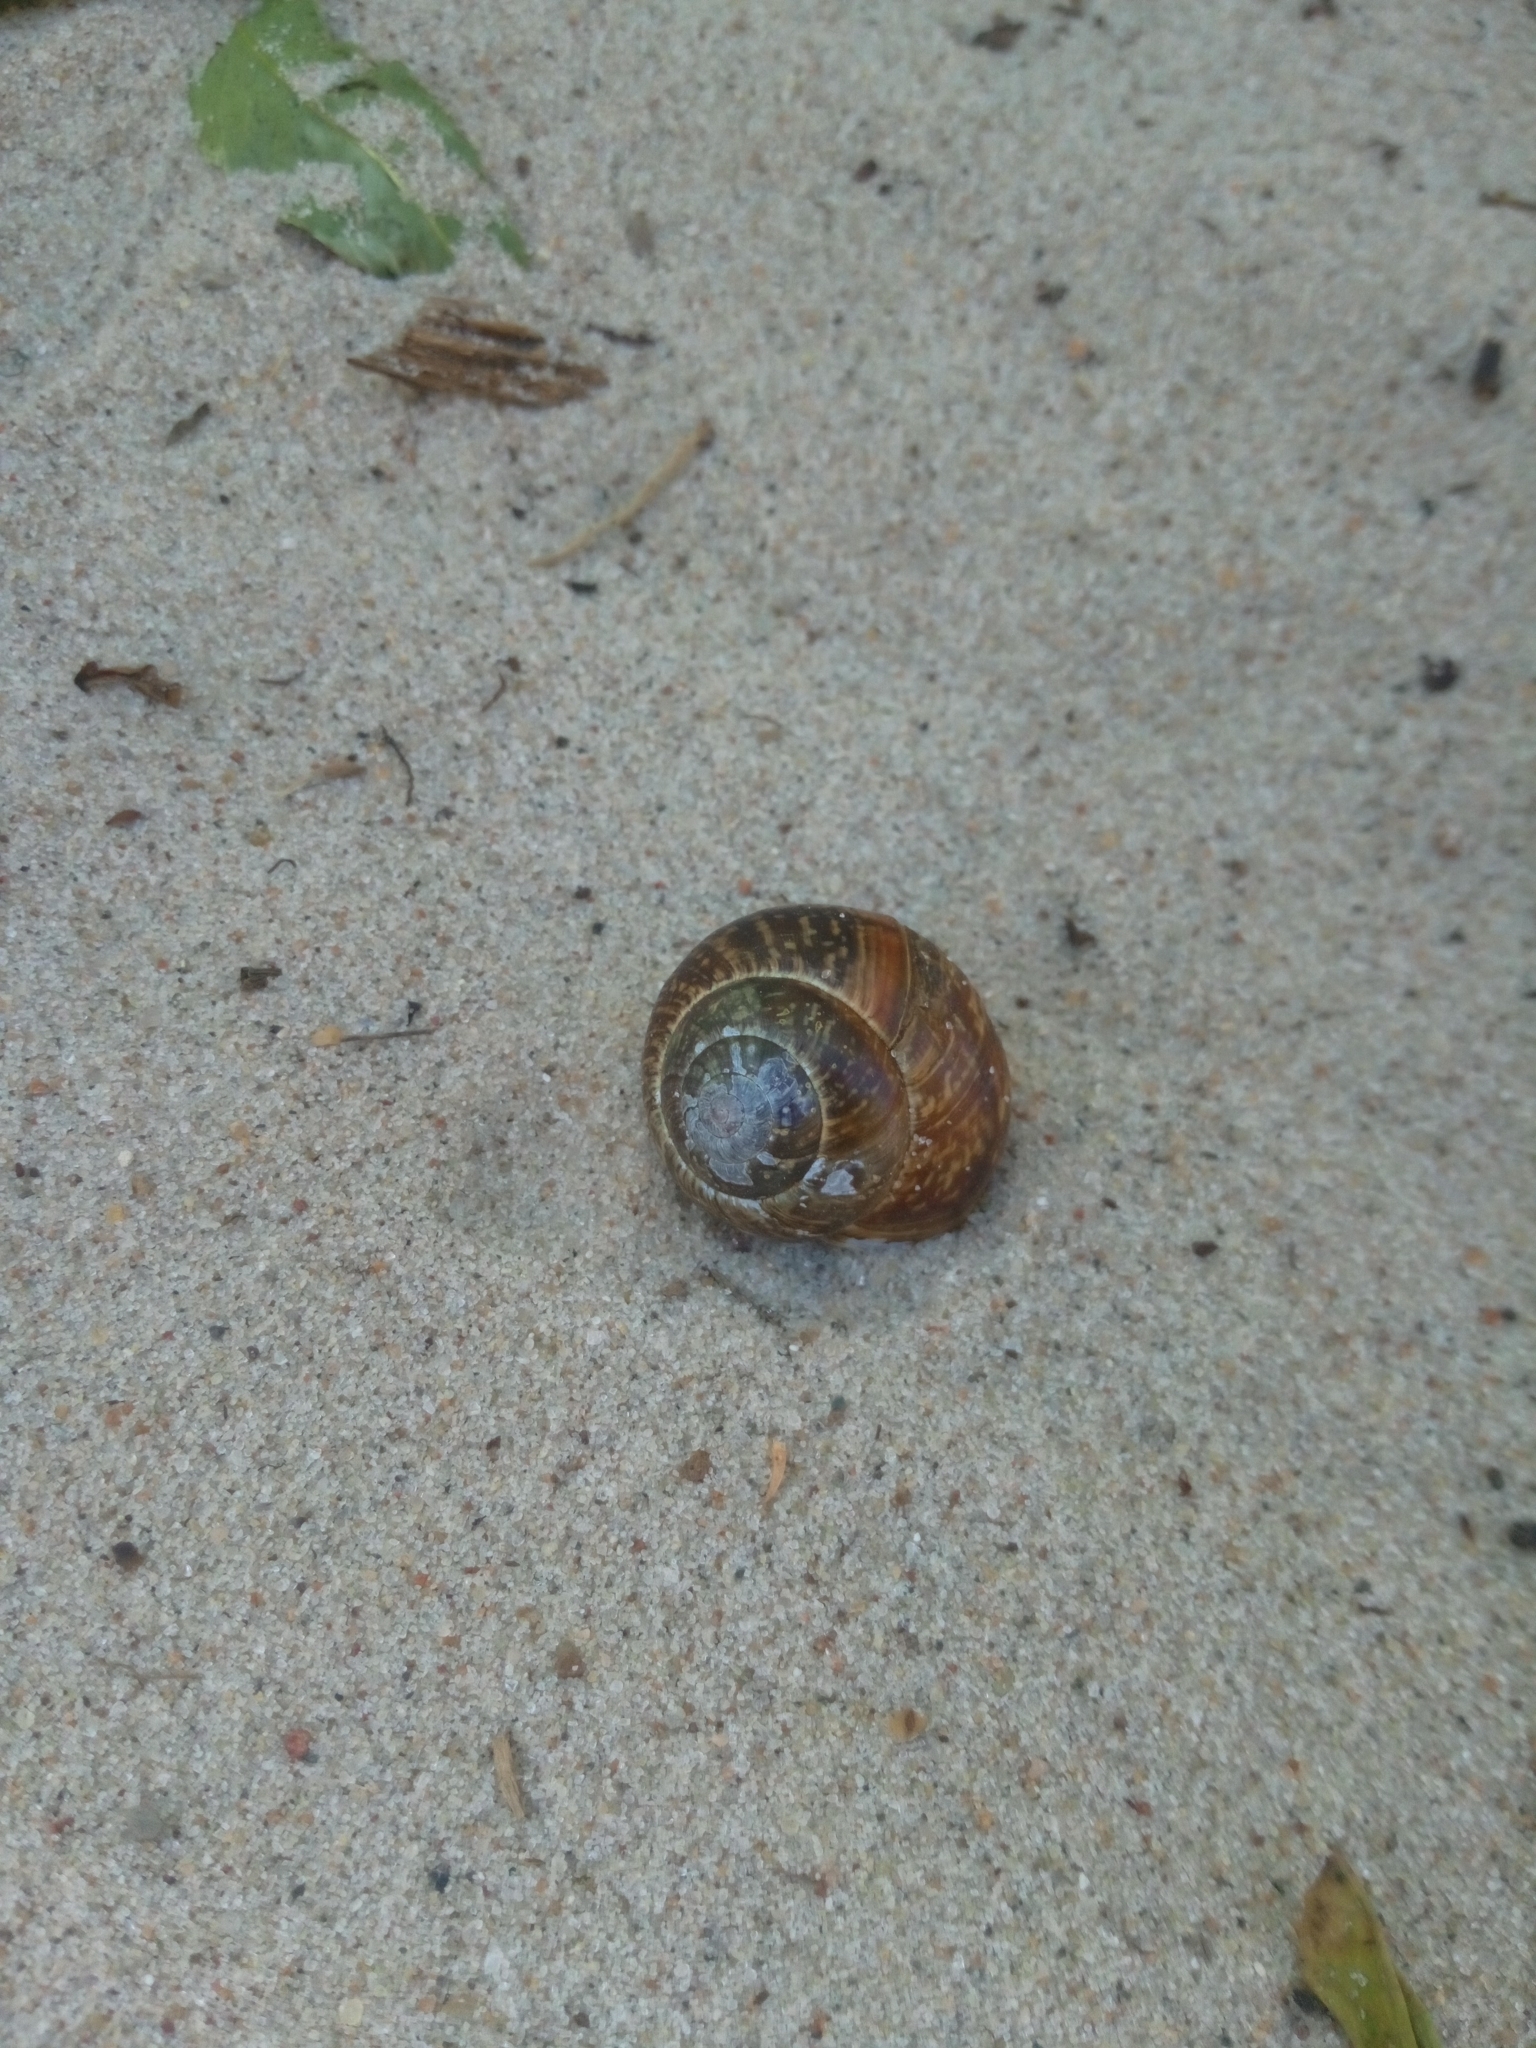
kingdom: Animalia
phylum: Mollusca
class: Gastropoda
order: Stylommatophora
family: Helicidae
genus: Arianta
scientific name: Arianta arbustorum
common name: Copse snail
